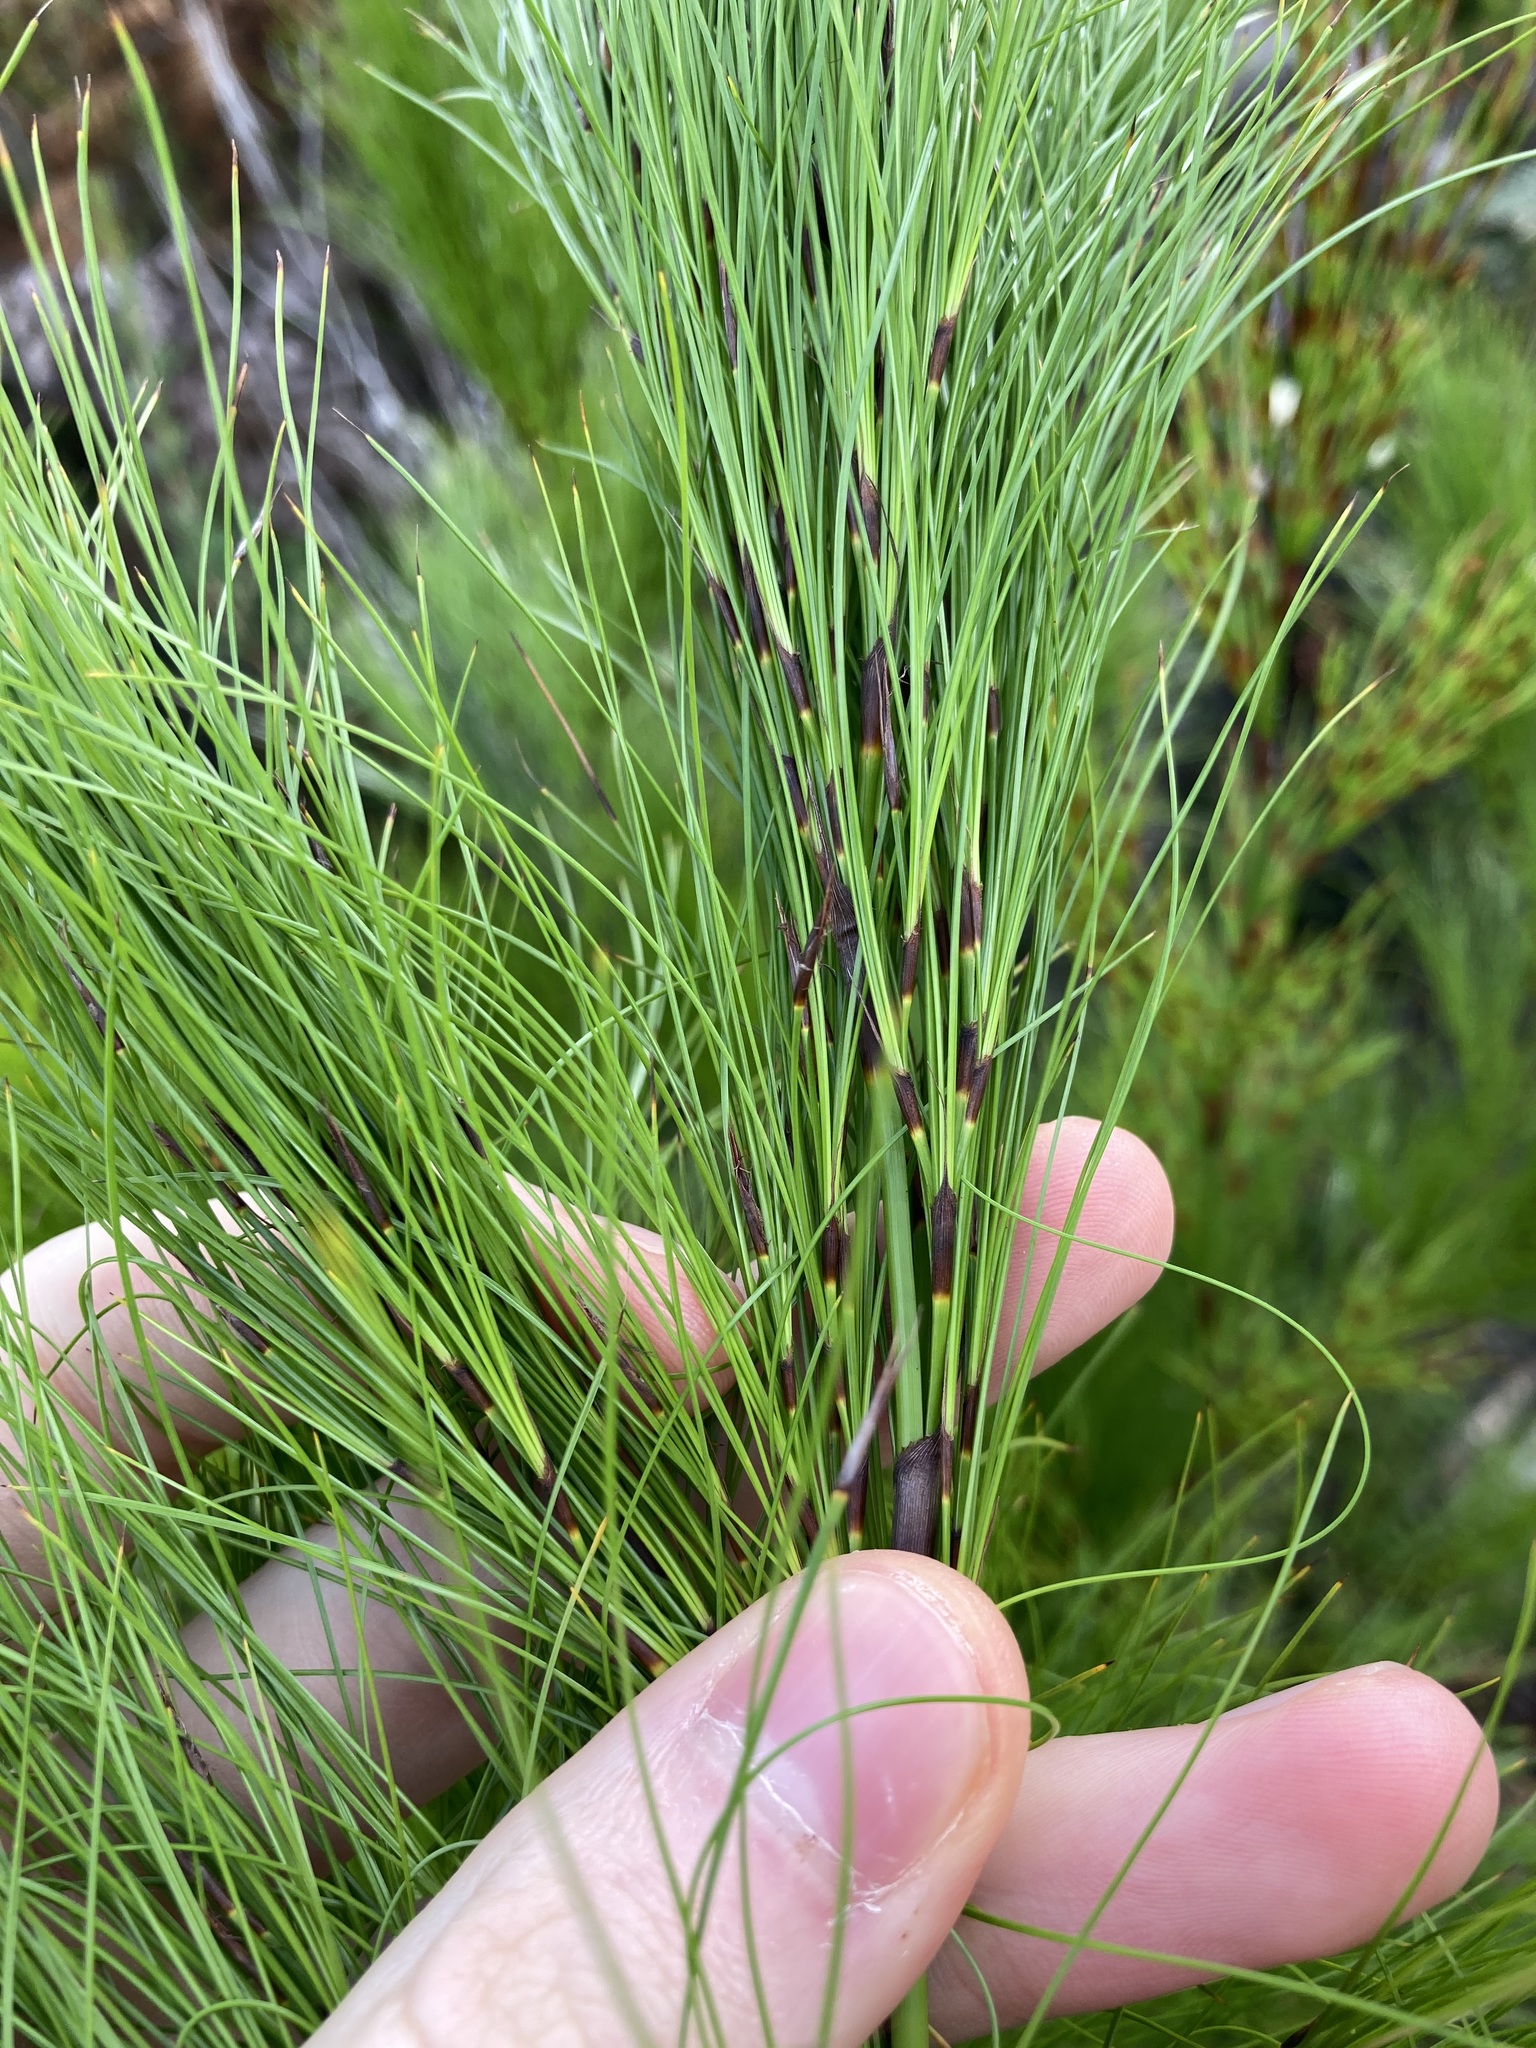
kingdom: Plantae
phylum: Tracheophyta
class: Liliopsida
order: Poales
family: Cyperaceae
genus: Caustis
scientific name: Caustis blakei
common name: Foxtail-fern
